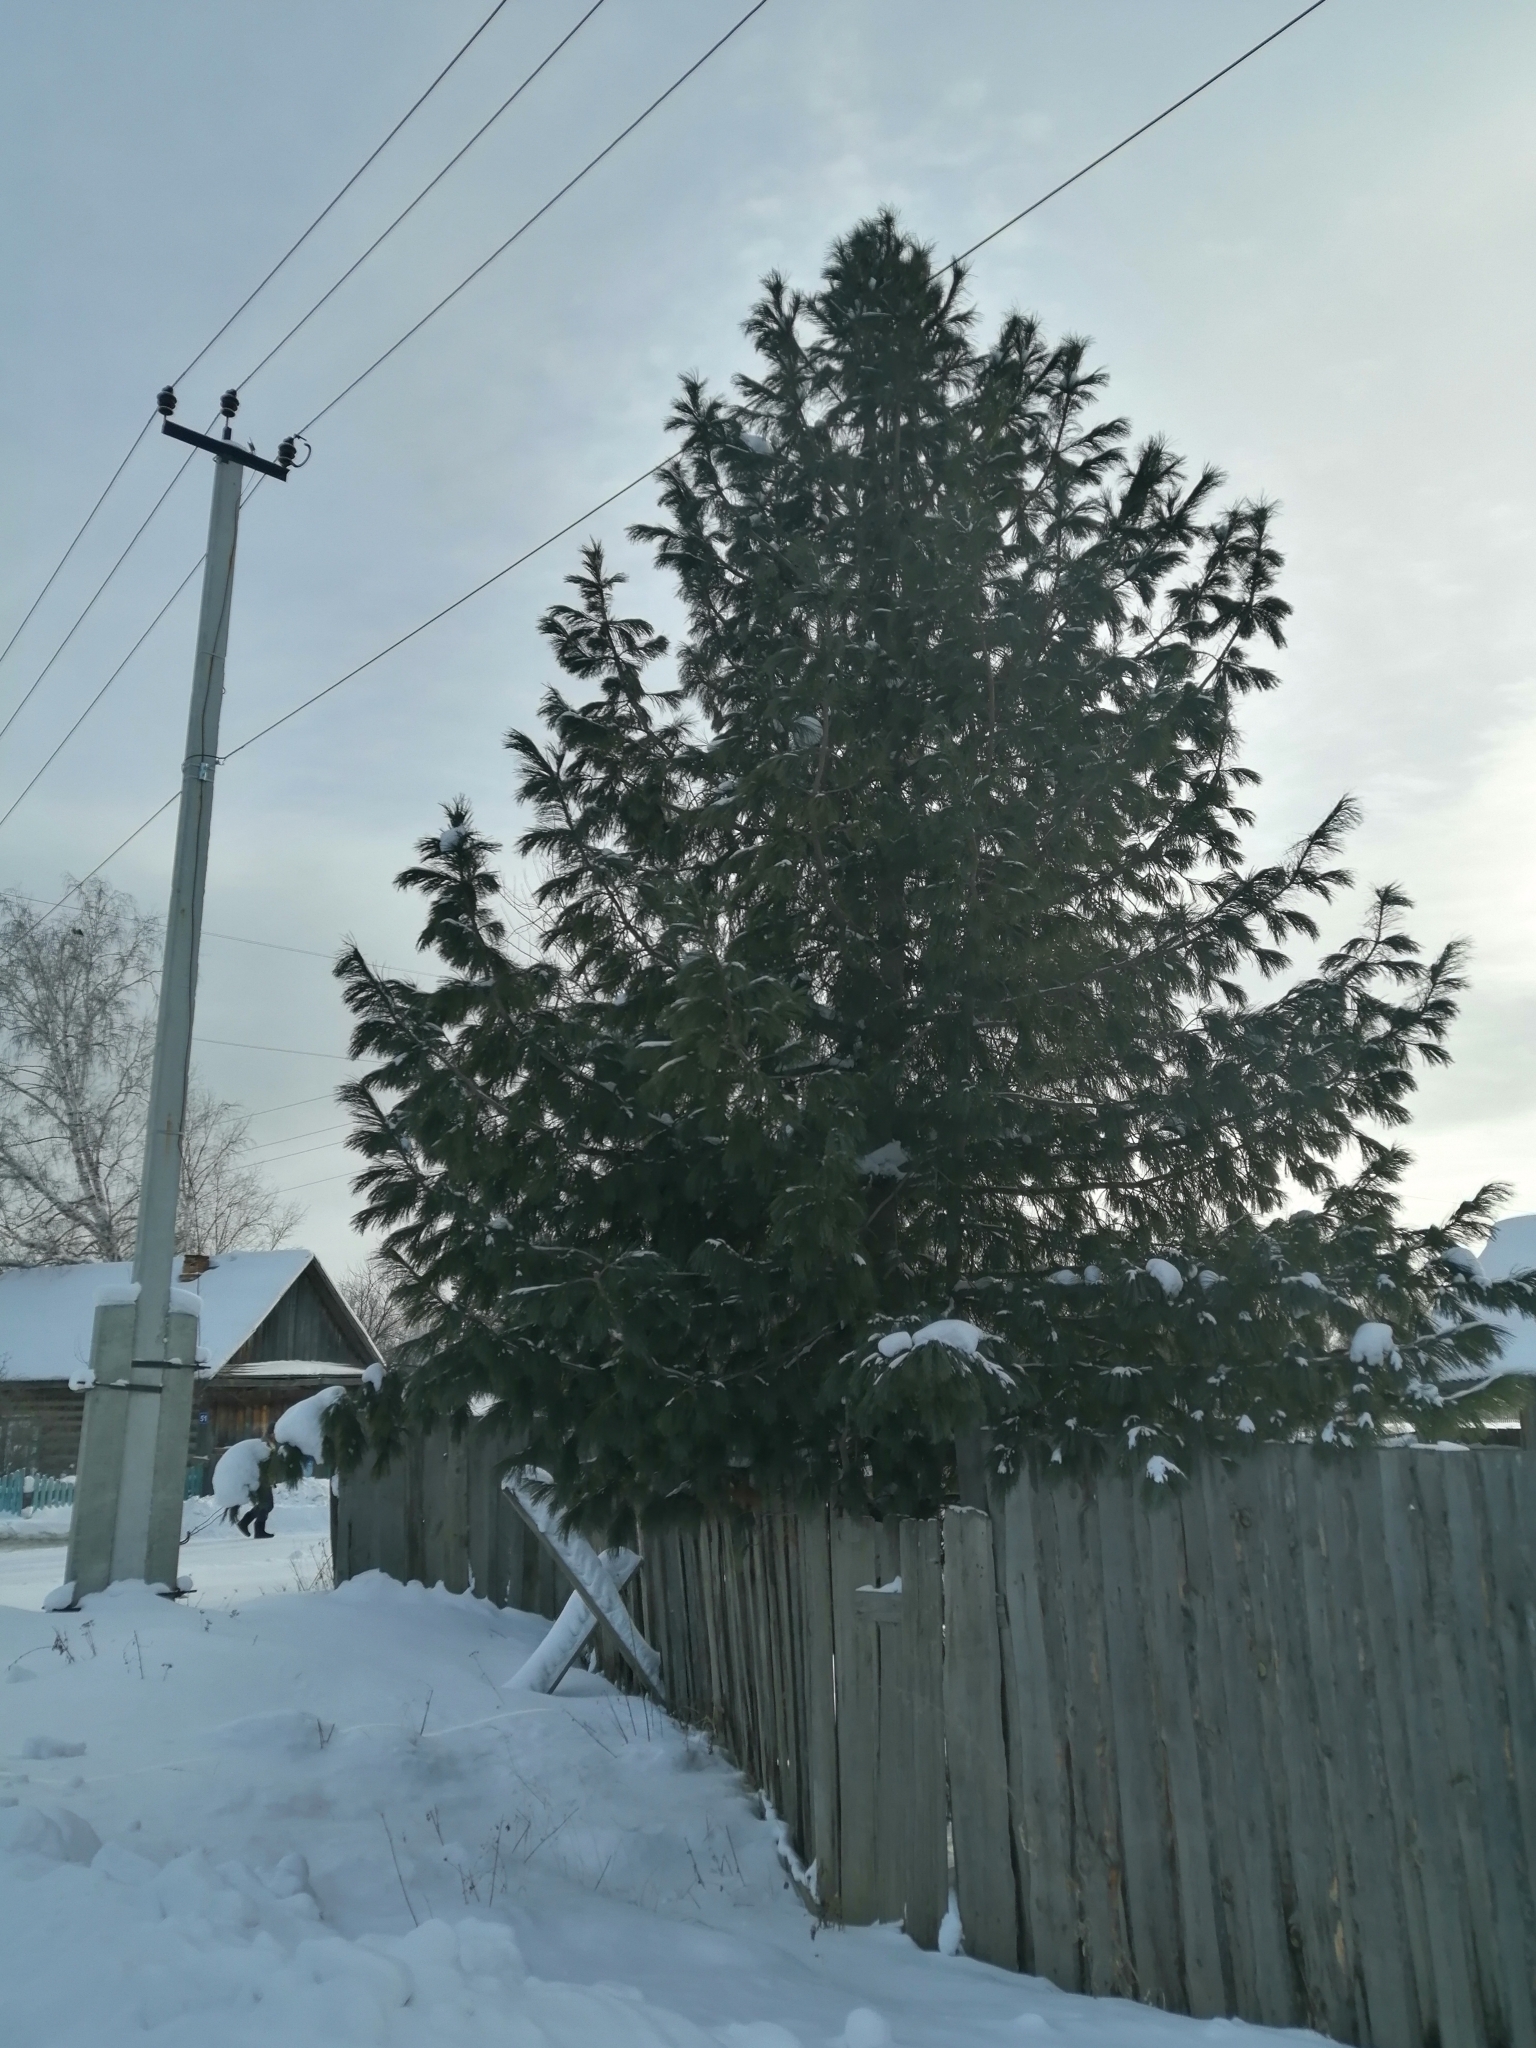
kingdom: Plantae
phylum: Tracheophyta
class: Pinopsida
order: Pinales
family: Pinaceae
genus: Pinus
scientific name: Pinus sibirica
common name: Siberian pine
